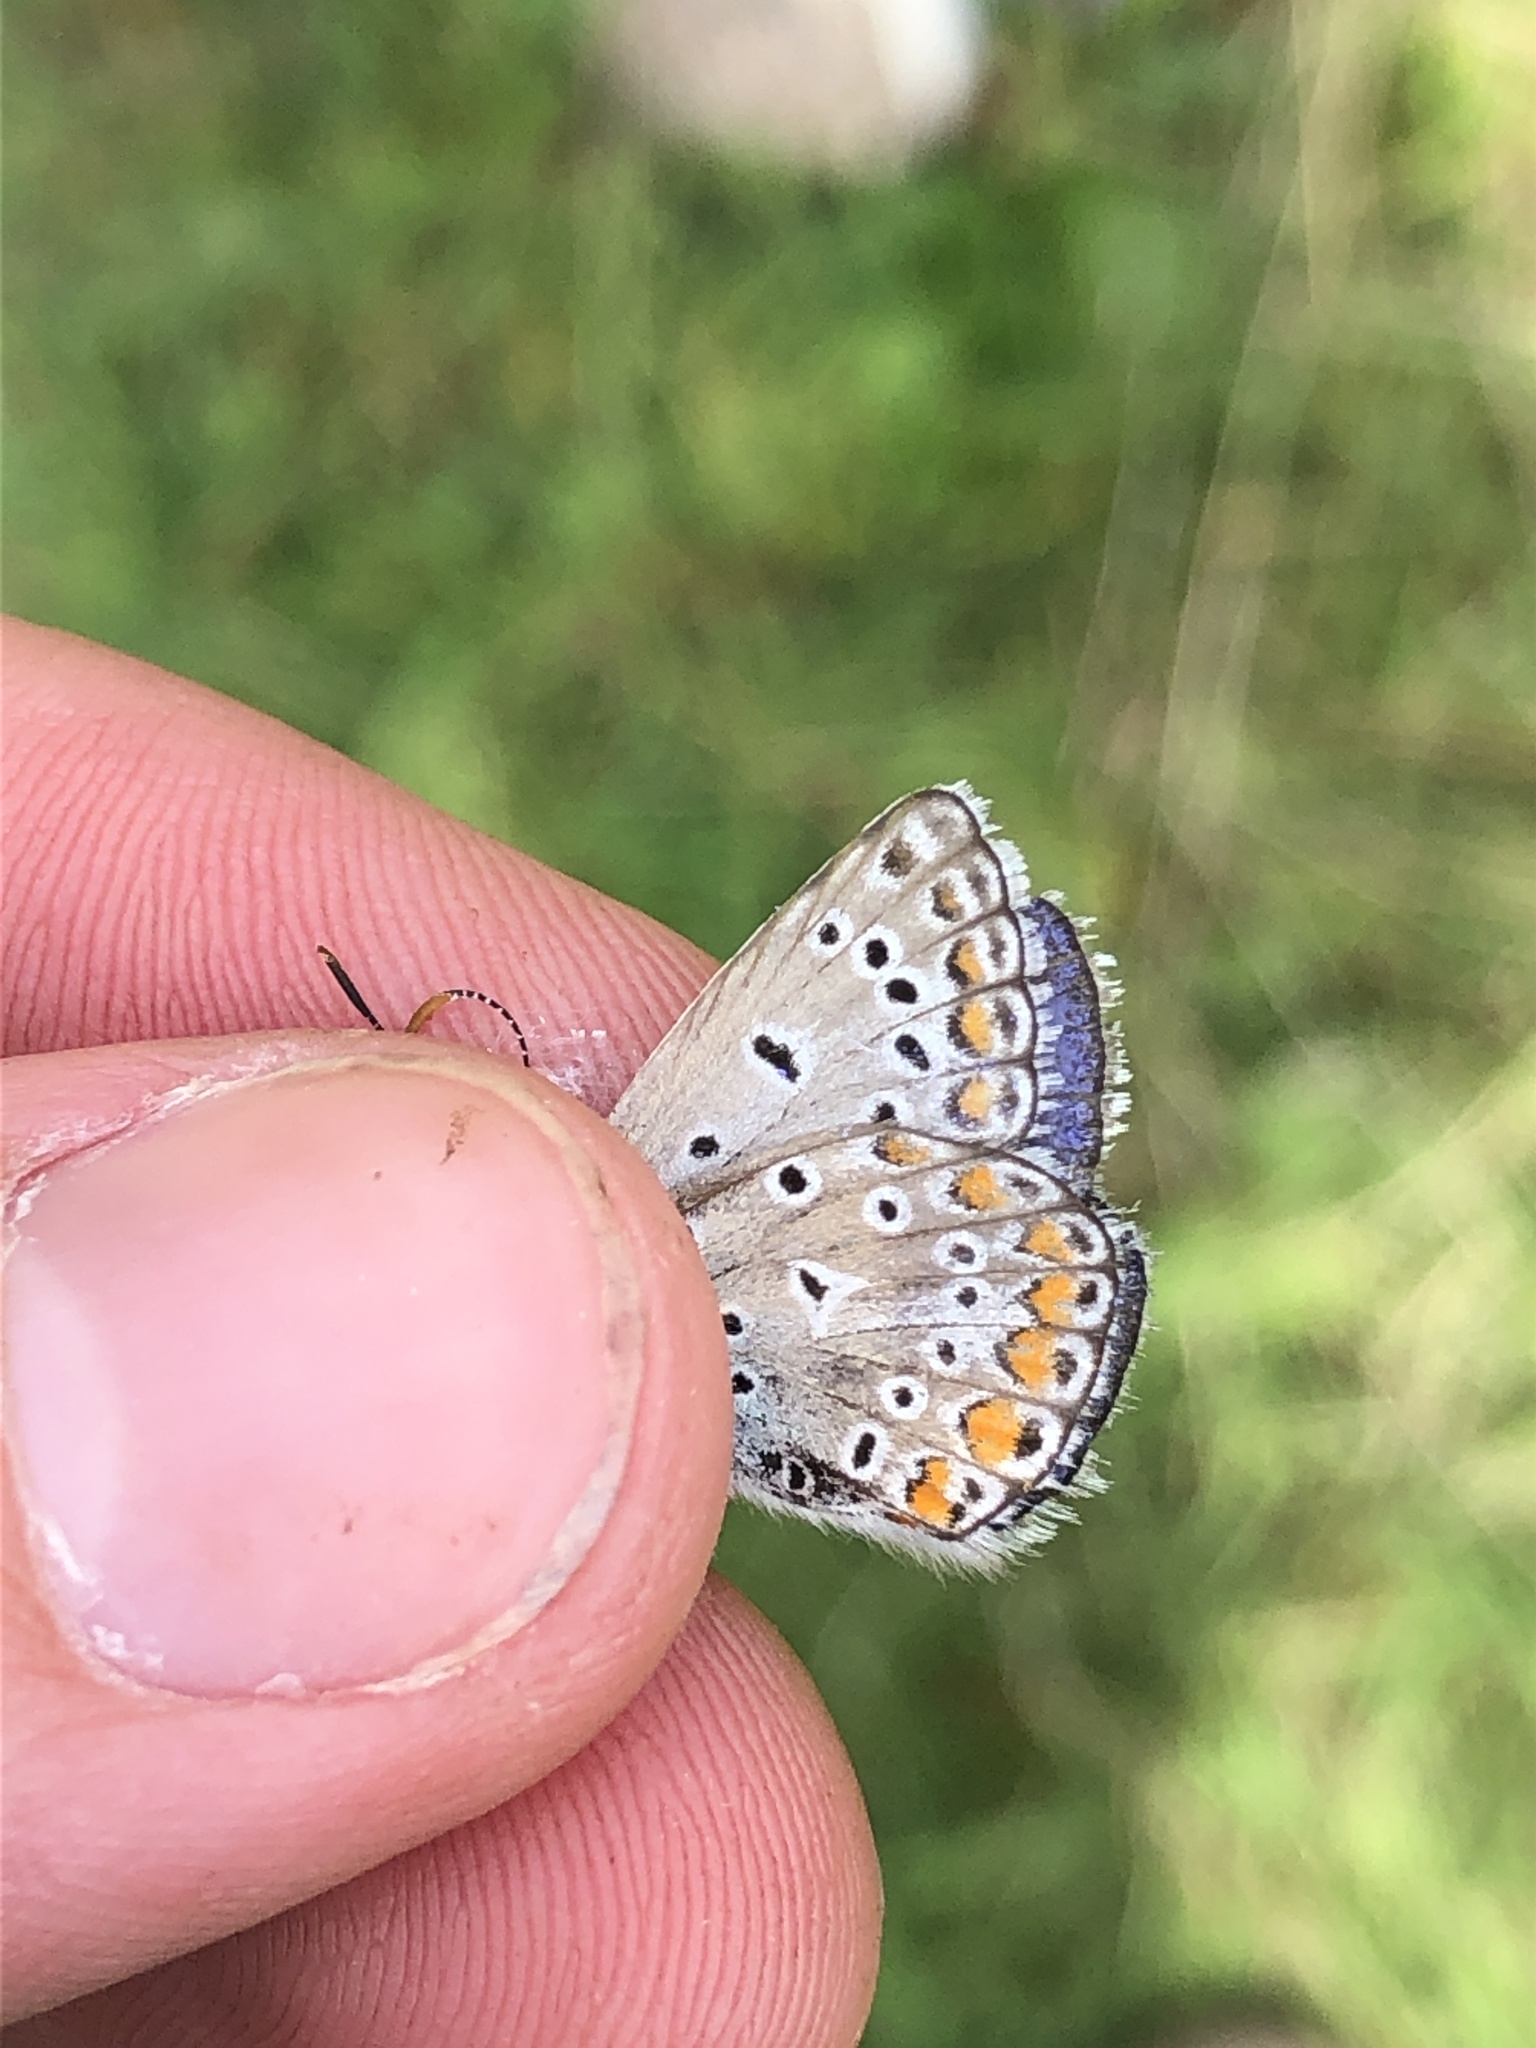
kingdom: Animalia
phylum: Arthropoda
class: Insecta
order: Lepidoptera
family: Lycaenidae
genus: Lysandra
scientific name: Lysandra bellargus
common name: Adonis blue
